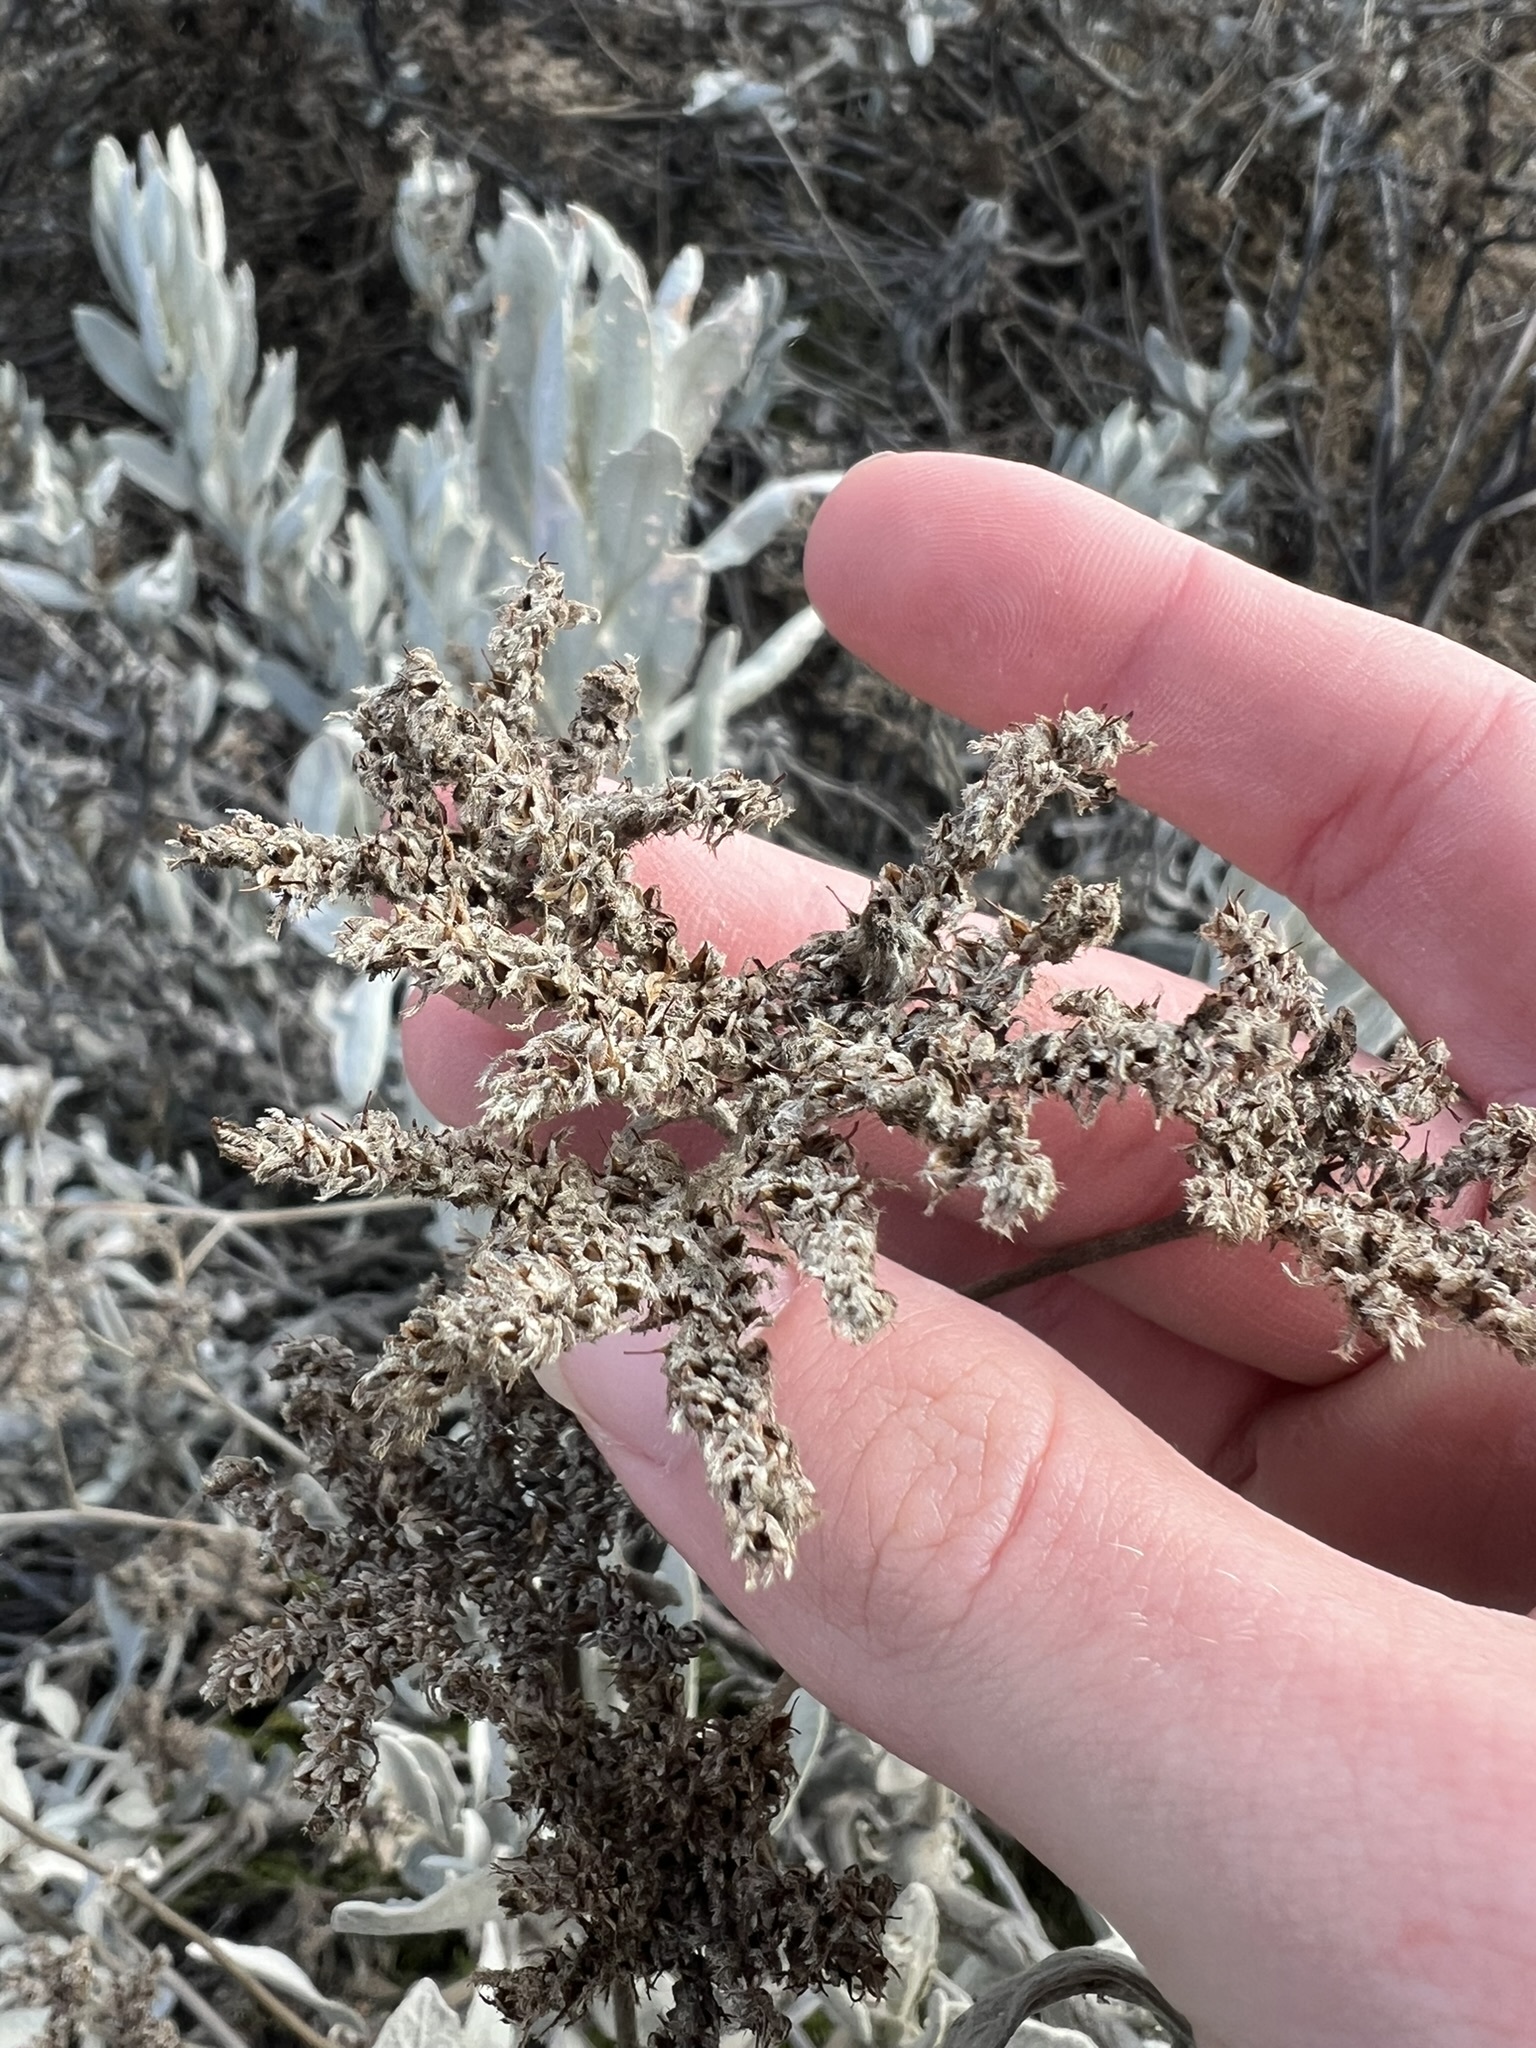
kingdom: Plantae
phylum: Tracheophyta
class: Magnoliopsida
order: Boraginales
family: Namaceae
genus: Eriodictyon
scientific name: Eriodictyon tomentosum
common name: Woolly yerba-santa
